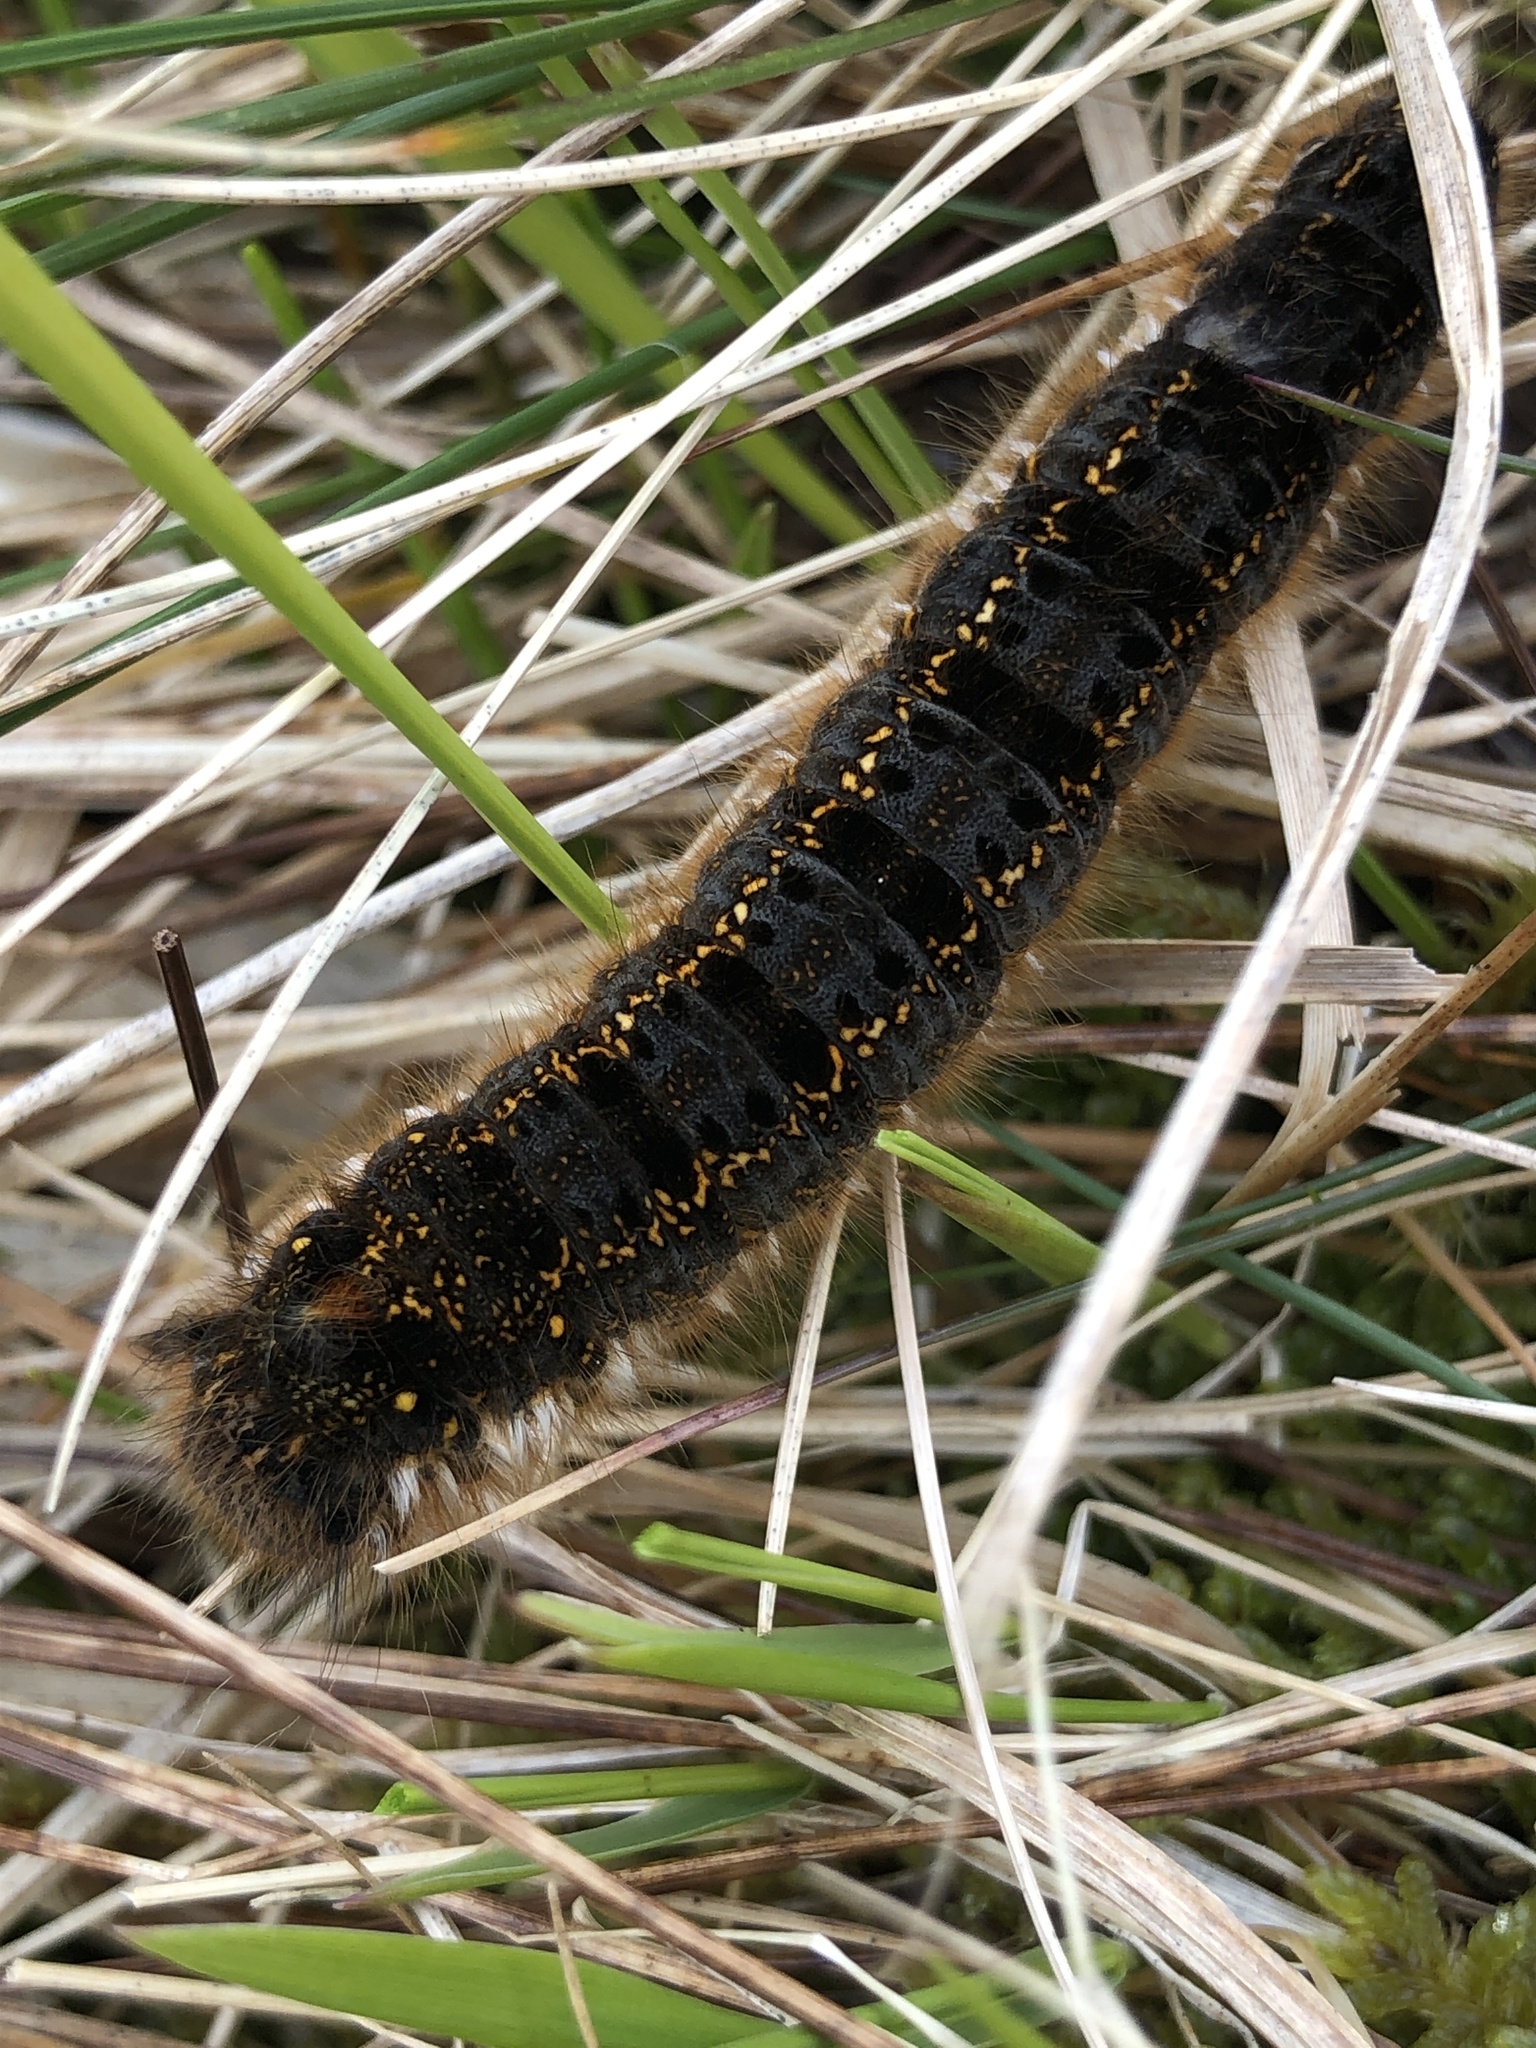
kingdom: Animalia
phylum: Arthropoda
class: Insecta
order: Lepidoptera
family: Lasiocampidae
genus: Euthrix
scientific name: Euthrix potatoria
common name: Drinker
